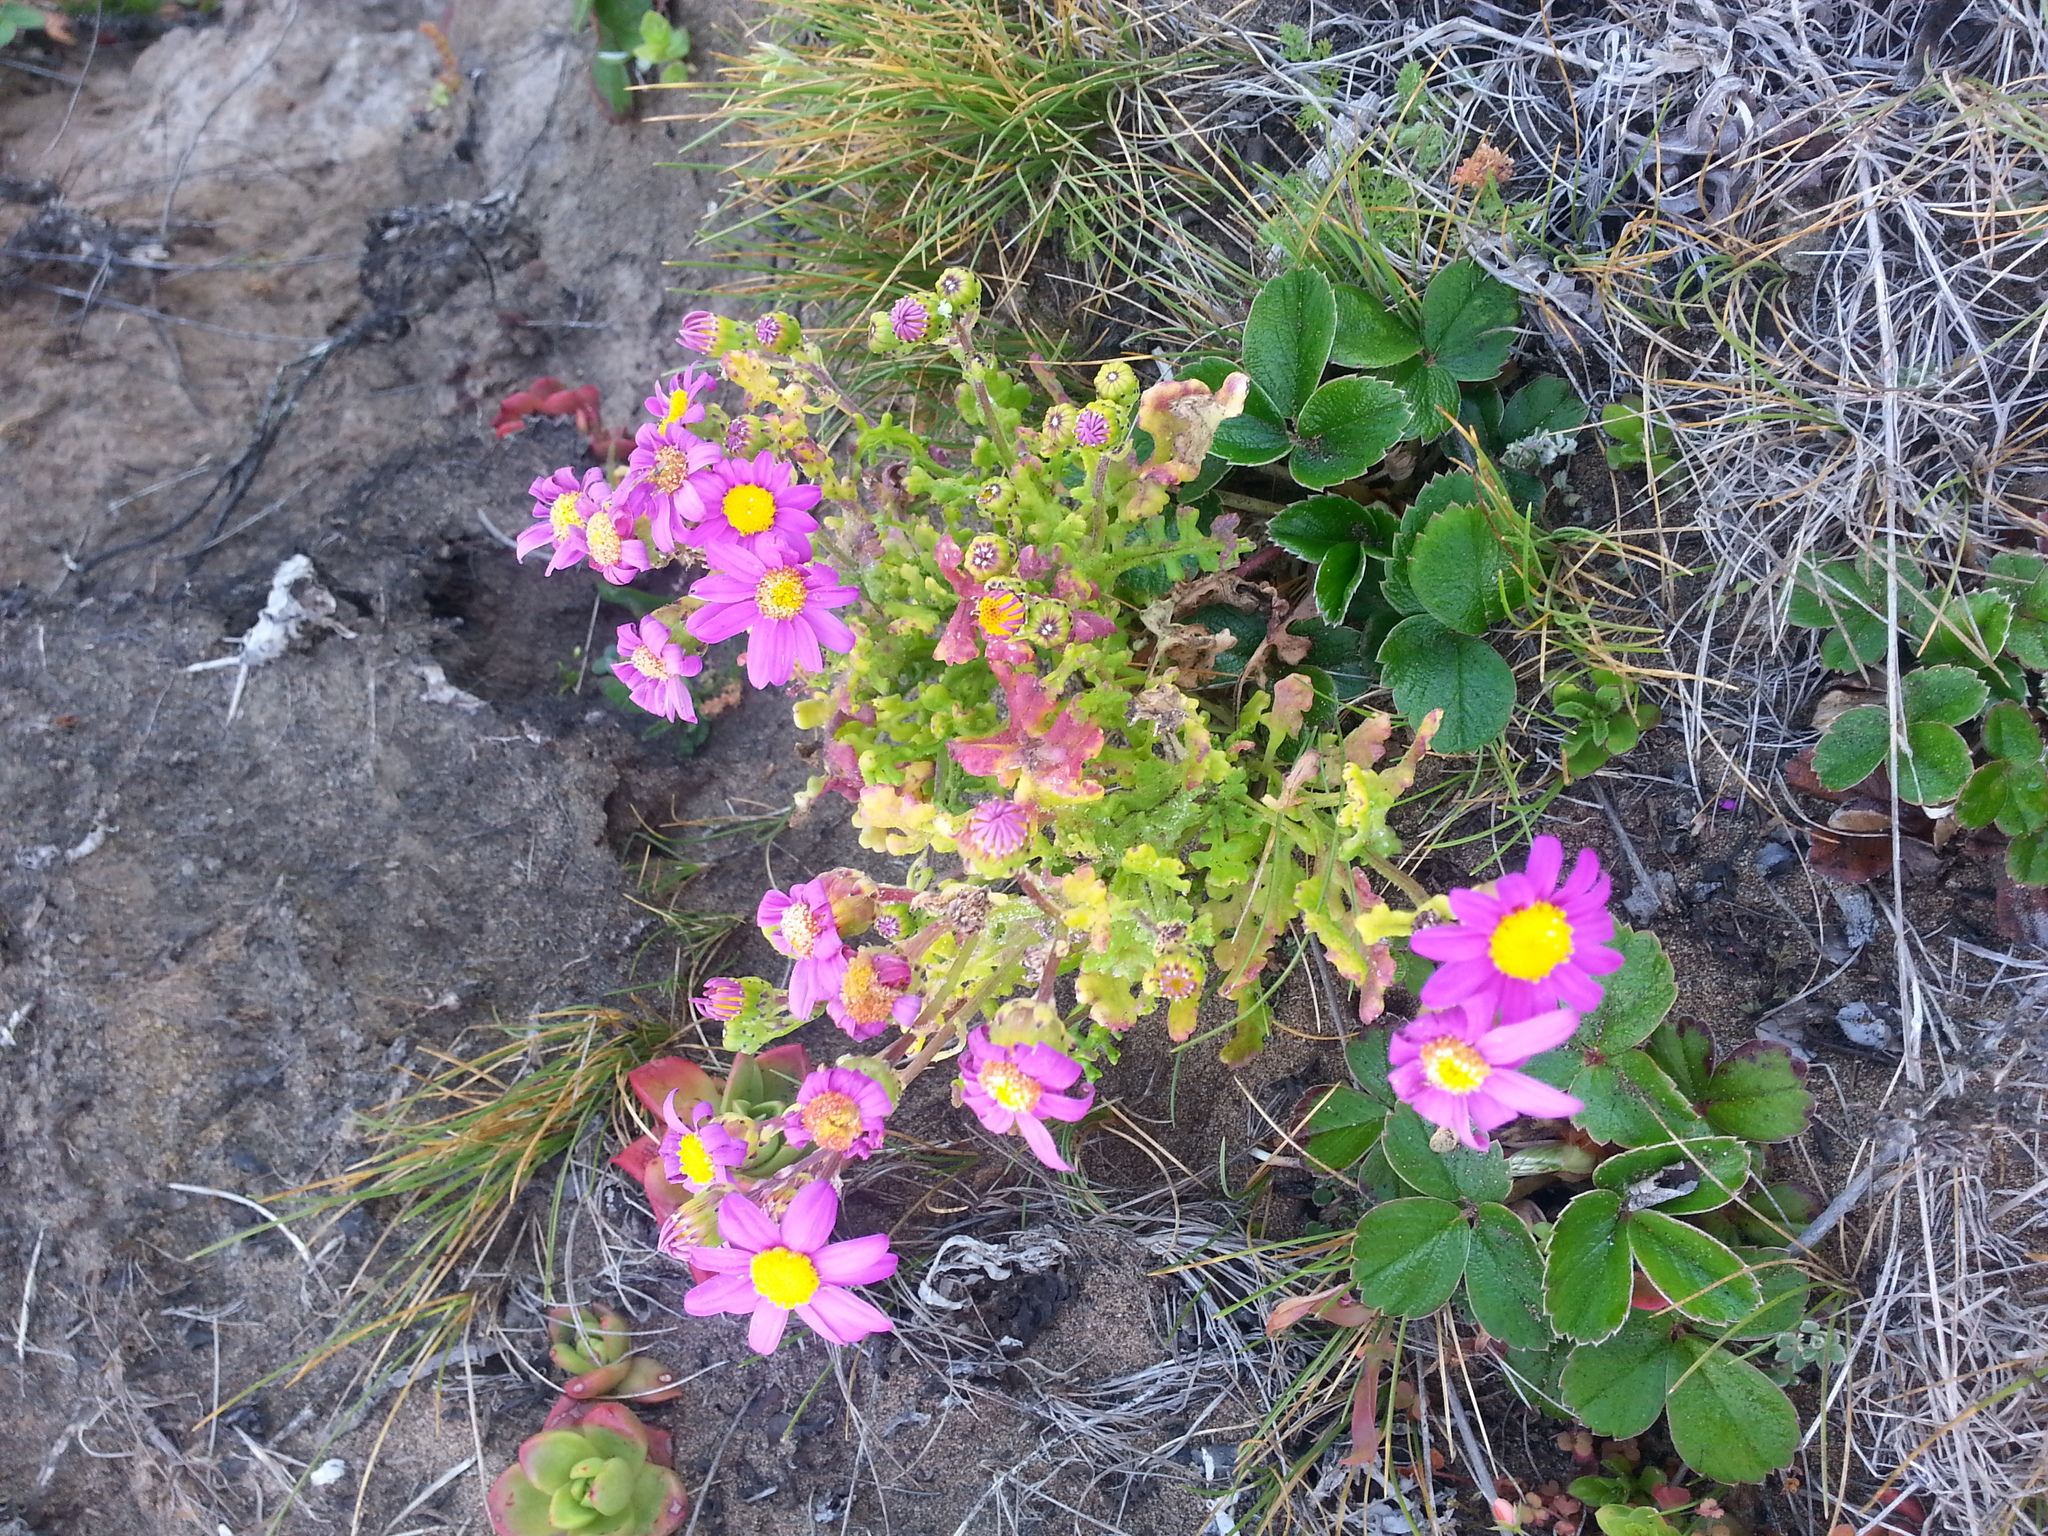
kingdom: Plantae
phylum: Tracheophyta
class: Magnoliopsida
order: Asterales
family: Asteraceae
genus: Senecio
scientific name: Senecio elegans
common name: Purple groundsel
